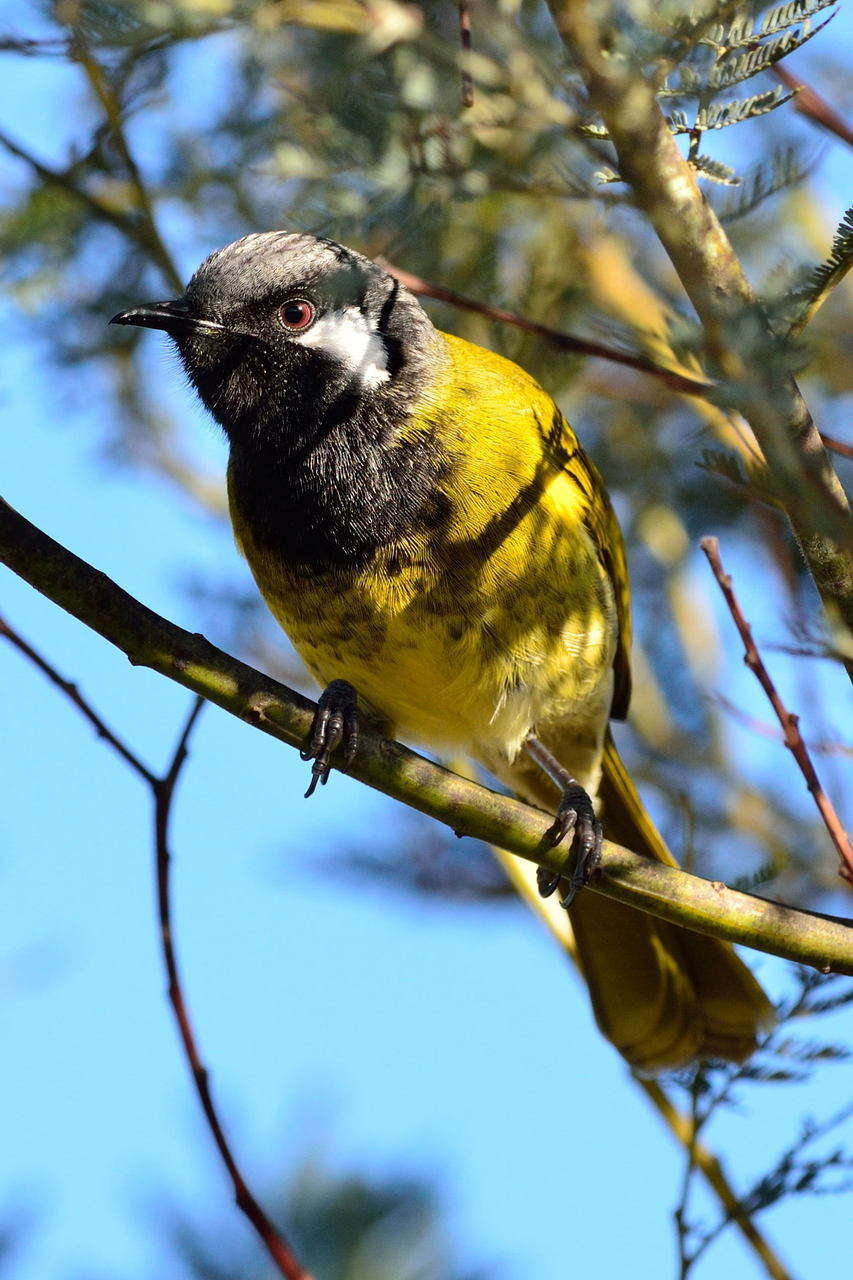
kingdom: Animalia
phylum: Chordata
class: Aves
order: Passeriformes
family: Meliphagidae
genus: Nesoptilotis
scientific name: Nesoptilotis leucotis
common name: White-eared honeyeater
